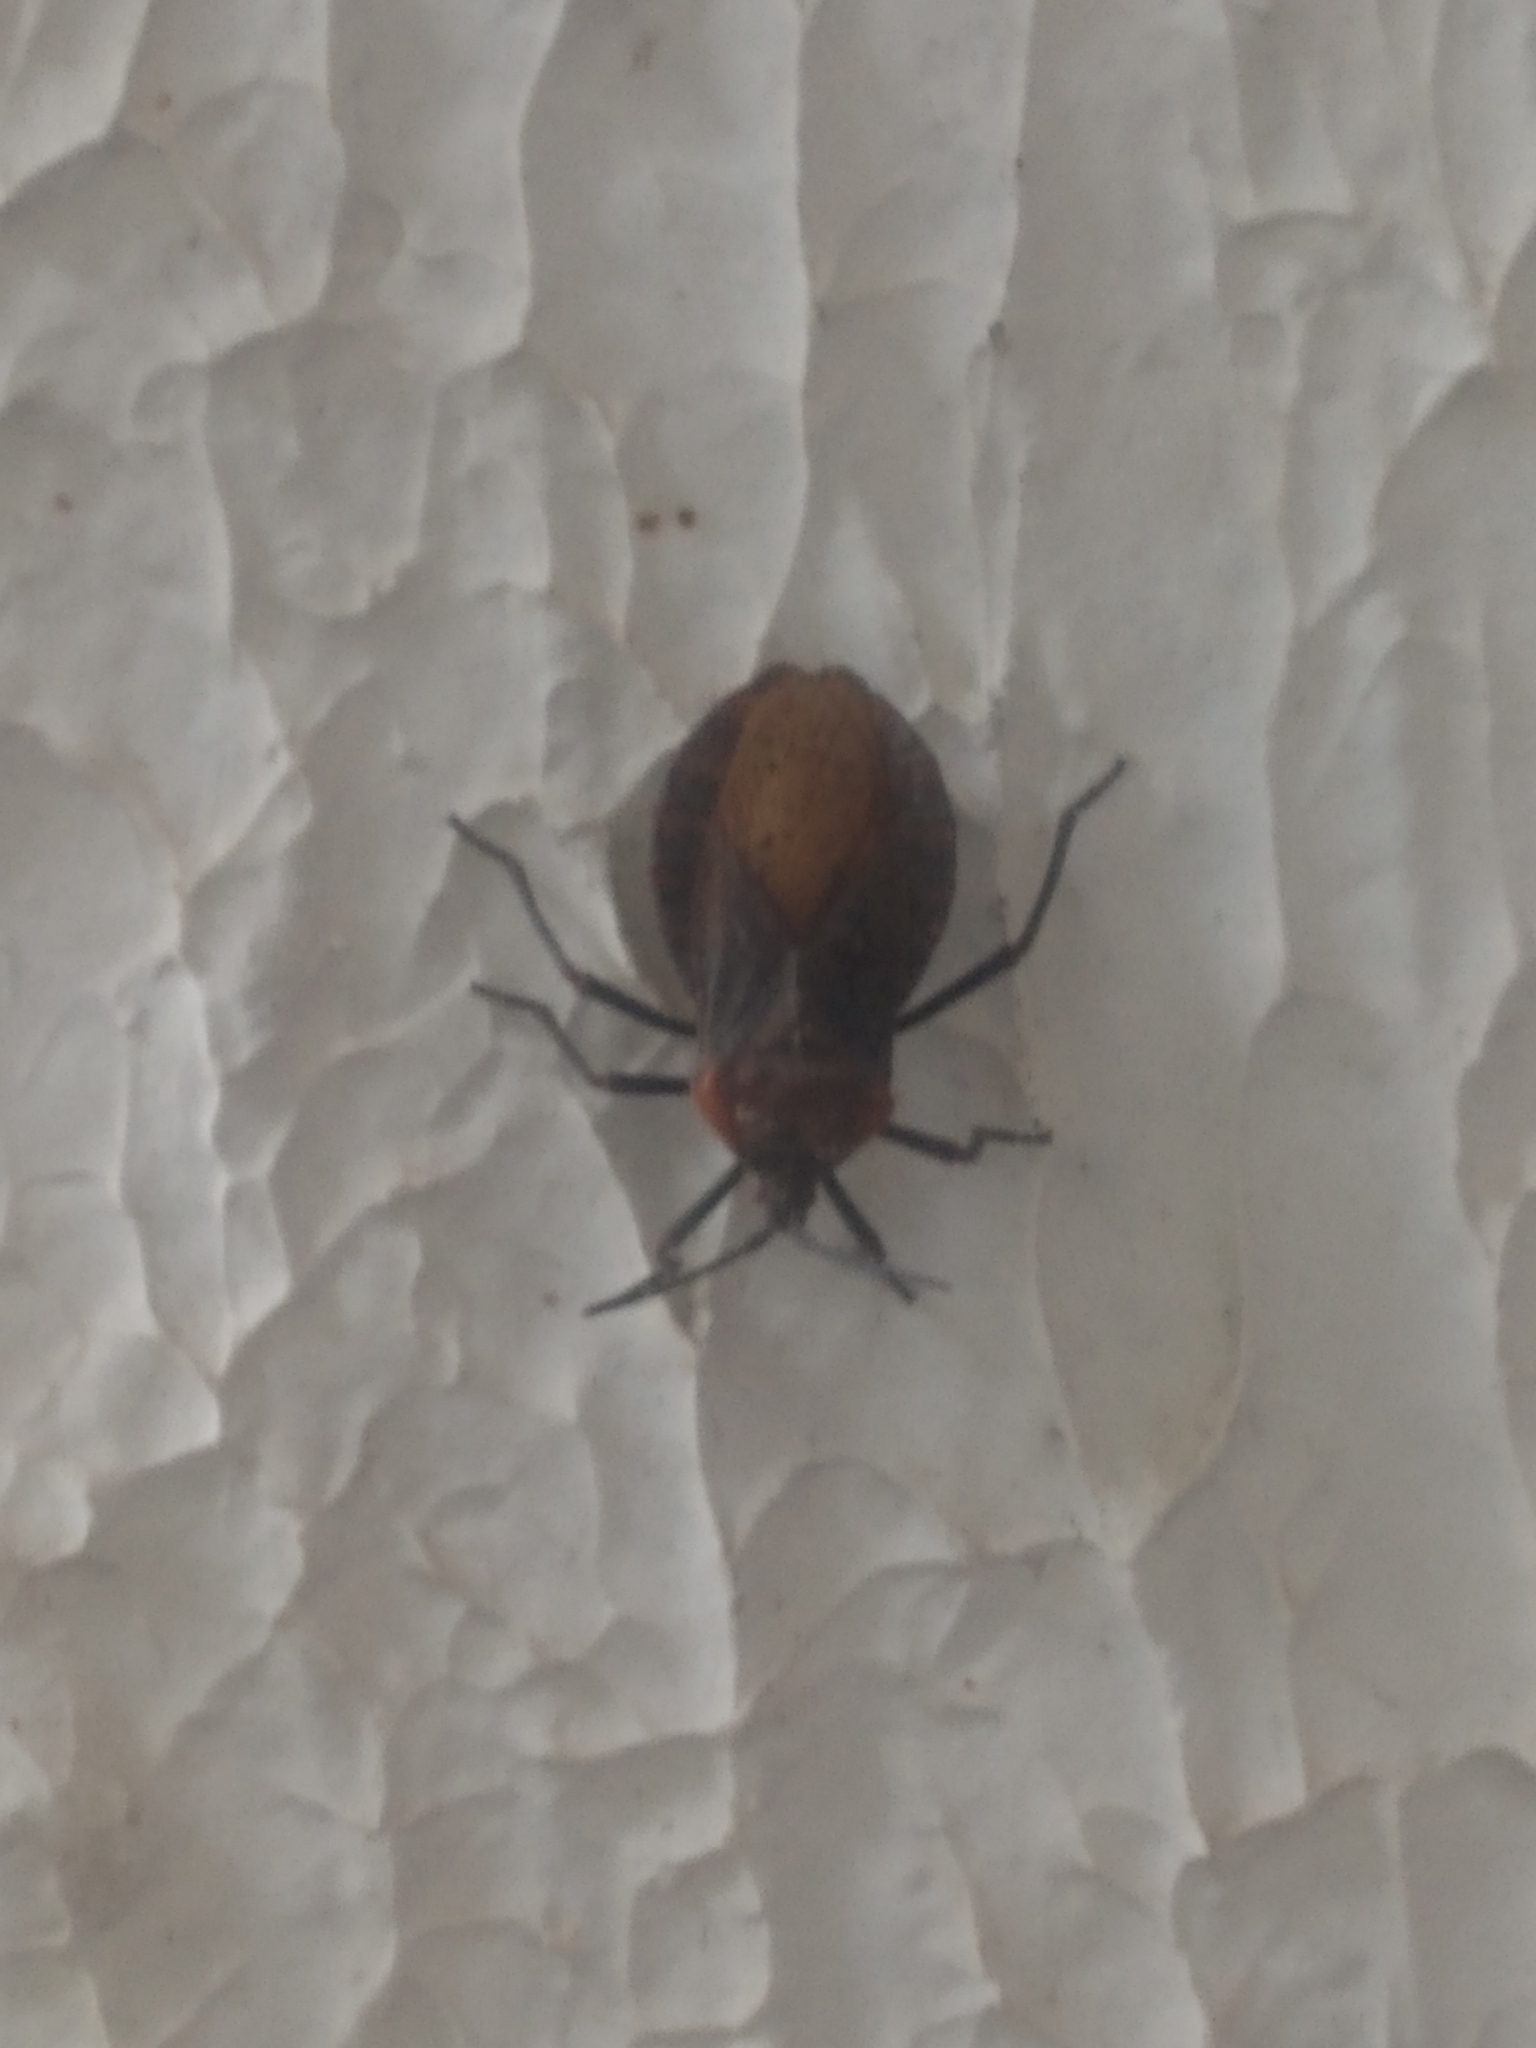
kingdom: Animalia
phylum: Arthropoda
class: Insecta
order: Hemiptera
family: Coreidae
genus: Spartocera
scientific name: Spartocera batatas
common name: Giant sweetpotato bug
